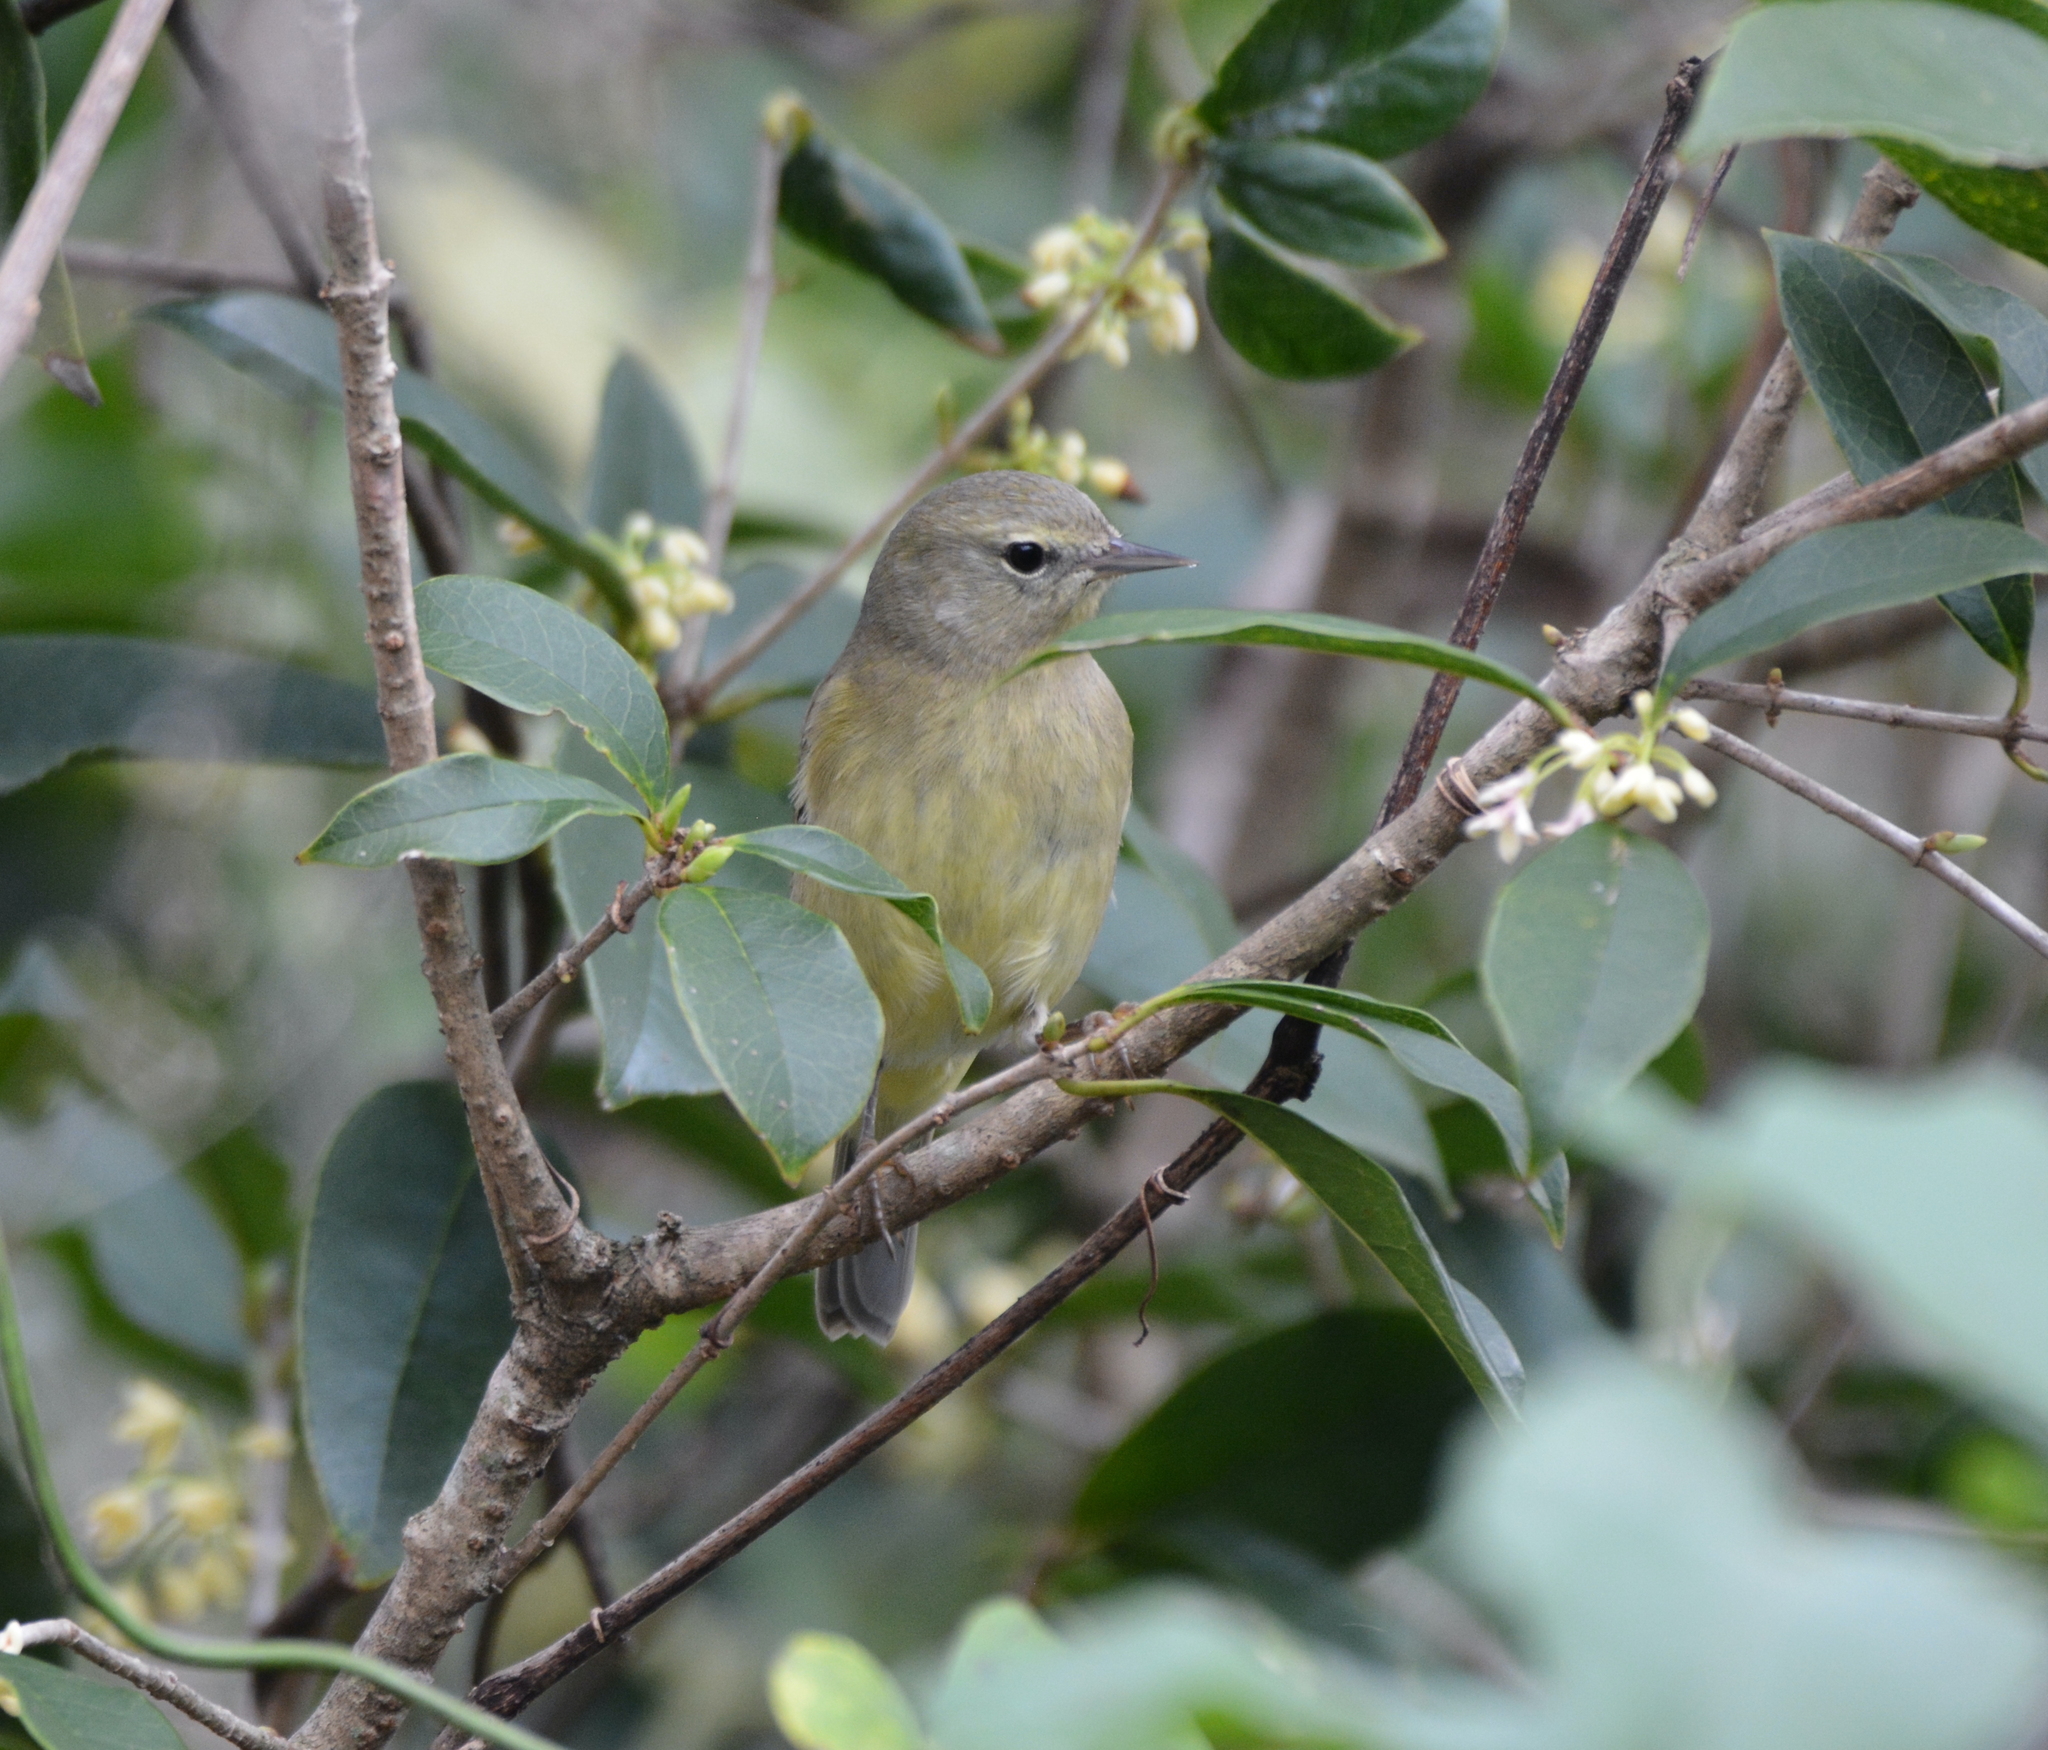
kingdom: Animalia
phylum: Chordata
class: Aves
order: Passeriformes
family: Parulidae
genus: Leiothlypis
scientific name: Leiothlypis celata
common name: Orange-crowned warbler
